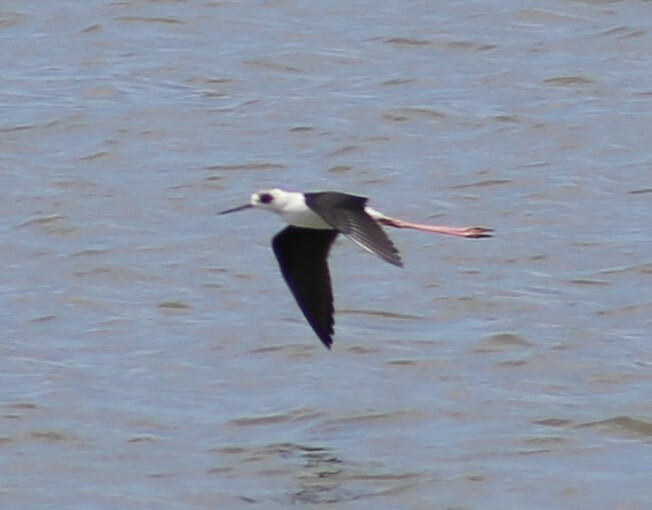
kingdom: Animalia
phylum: Chordata
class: Aves
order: Charadriiformes
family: Recurvirostridae
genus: Himantopus
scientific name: Himantopus leucocephalus
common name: White-headed stilt
